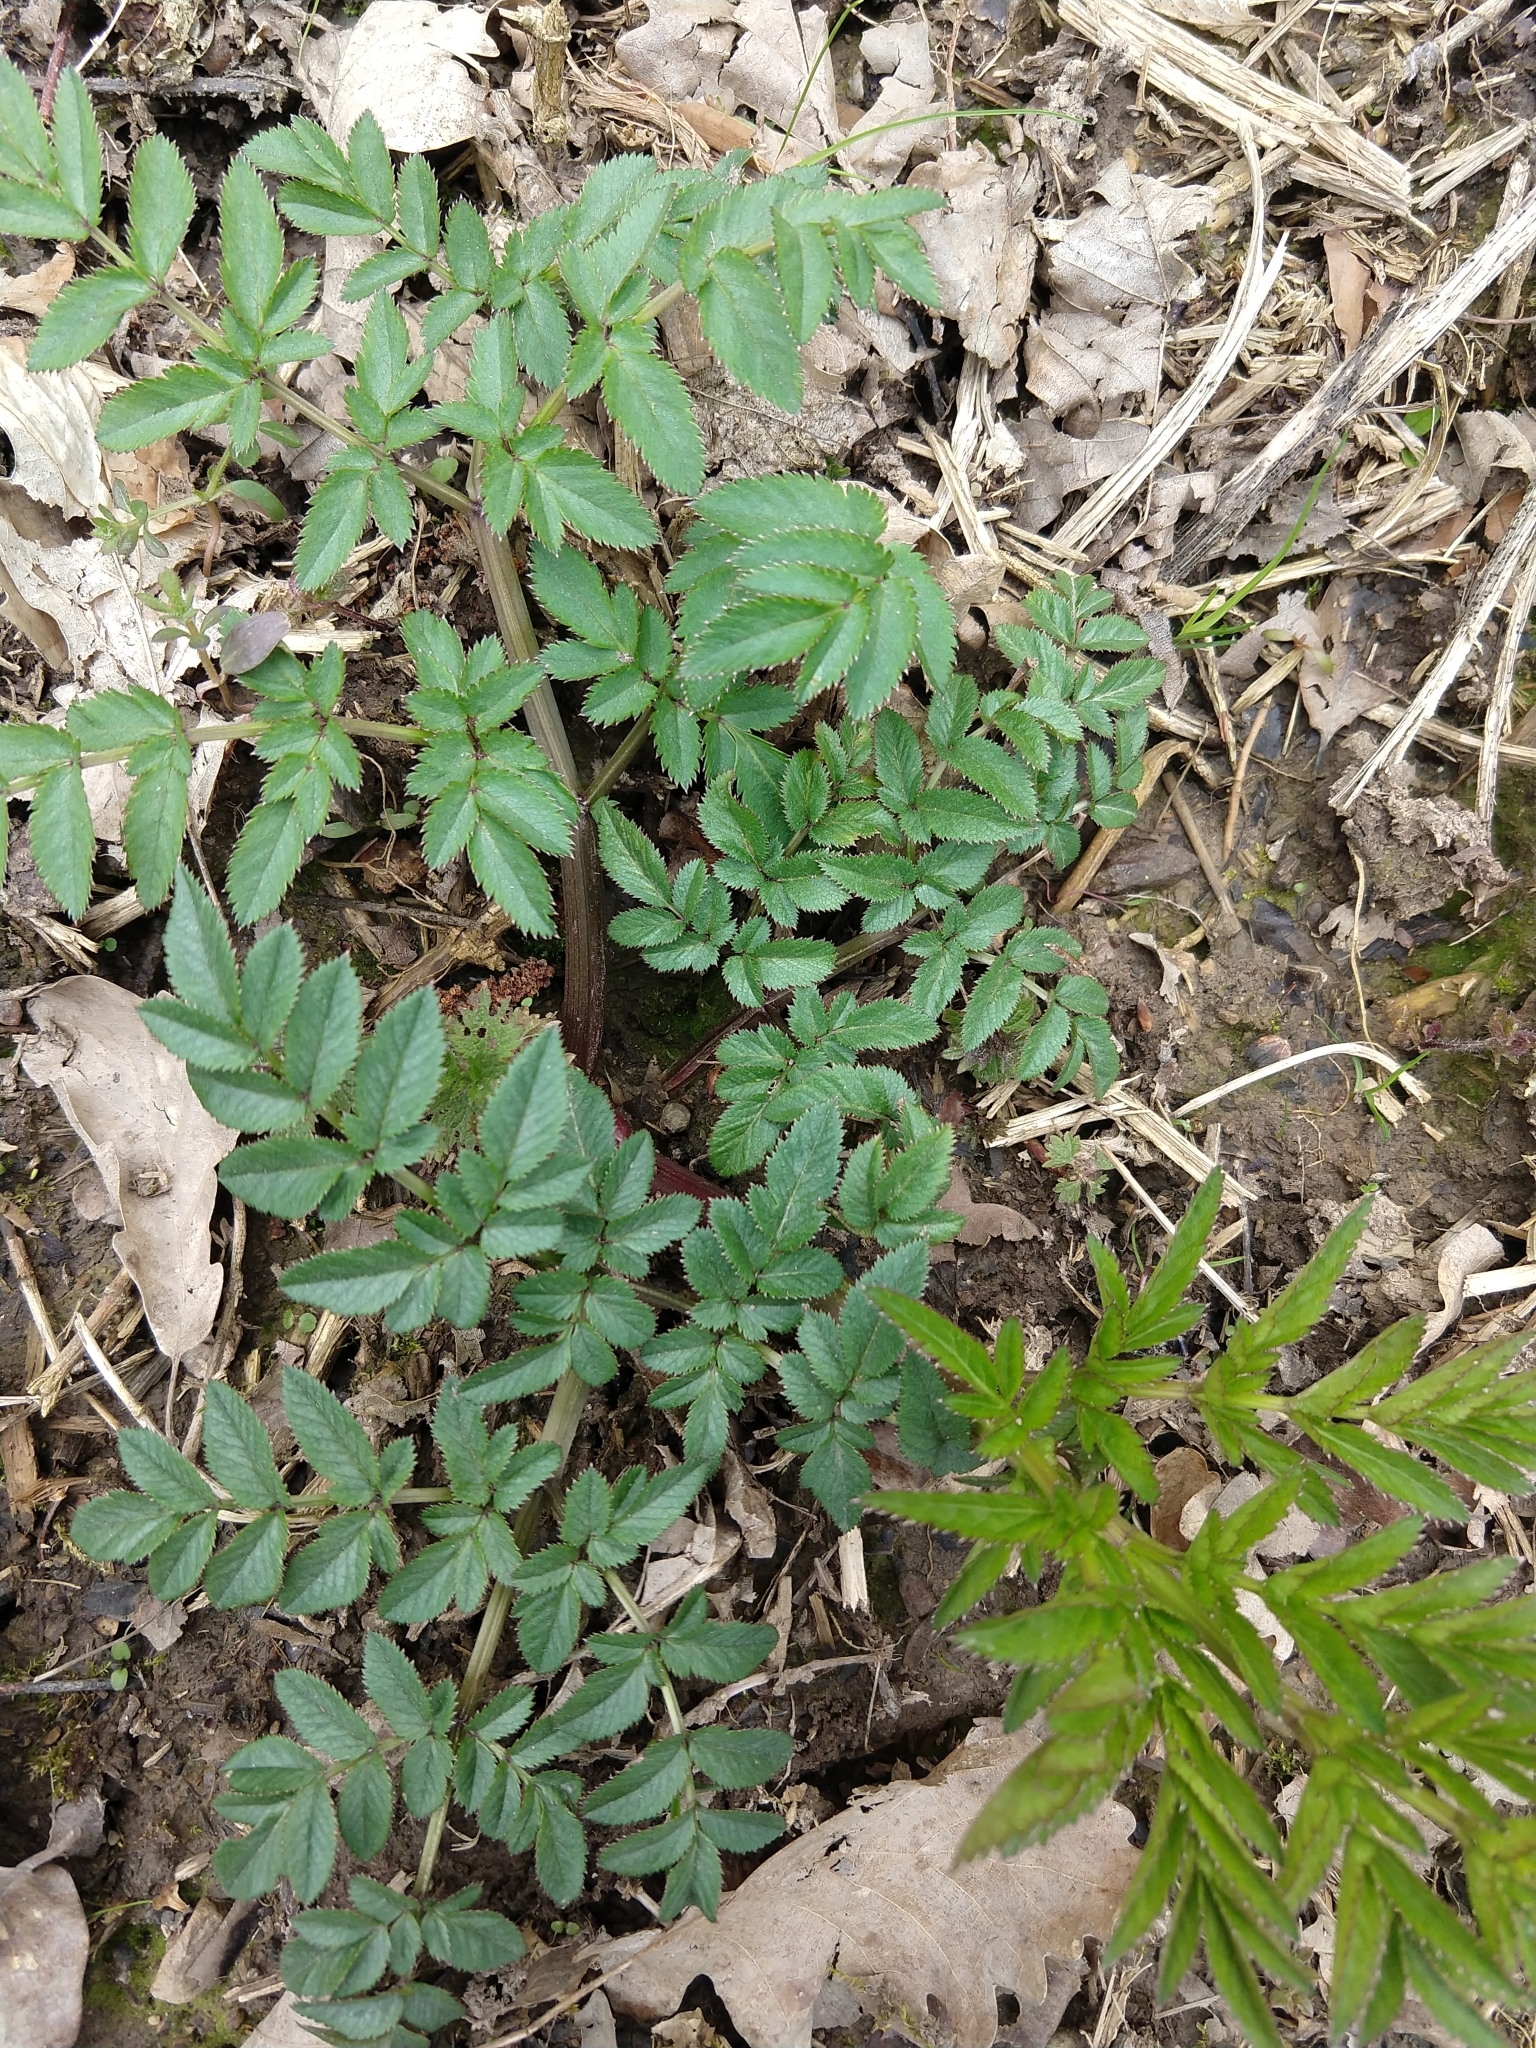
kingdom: Plantae
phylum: Tracheophyta
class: Magnoliopsida
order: Apiales
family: Apiaceae
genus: Angelica
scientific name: Angelica sylvestris
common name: Wild angelica
